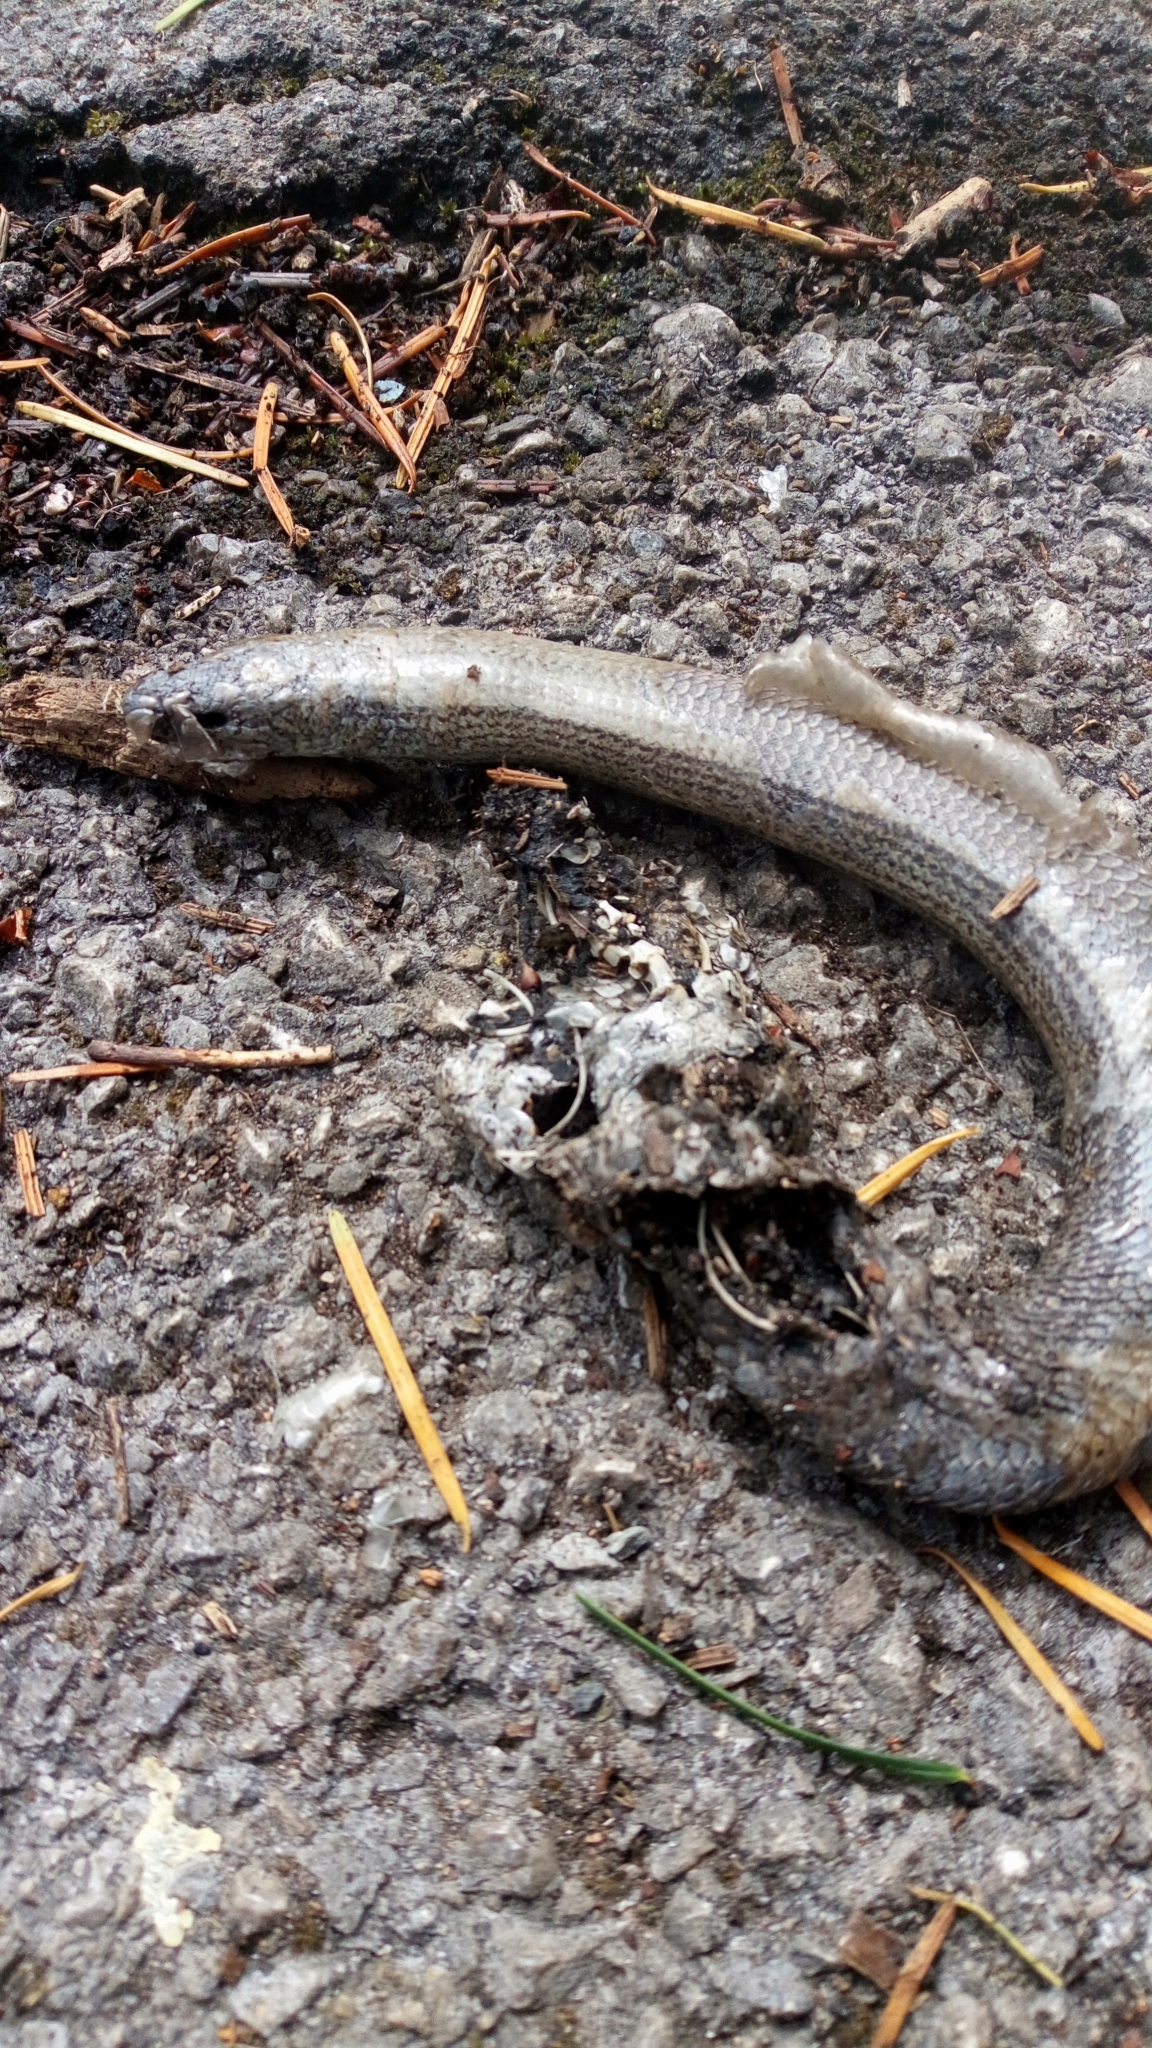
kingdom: Animalia
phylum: Chordata
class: Squamata
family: Anguidae
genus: Anguis
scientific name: Anguis fragilis
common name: Slow worm
